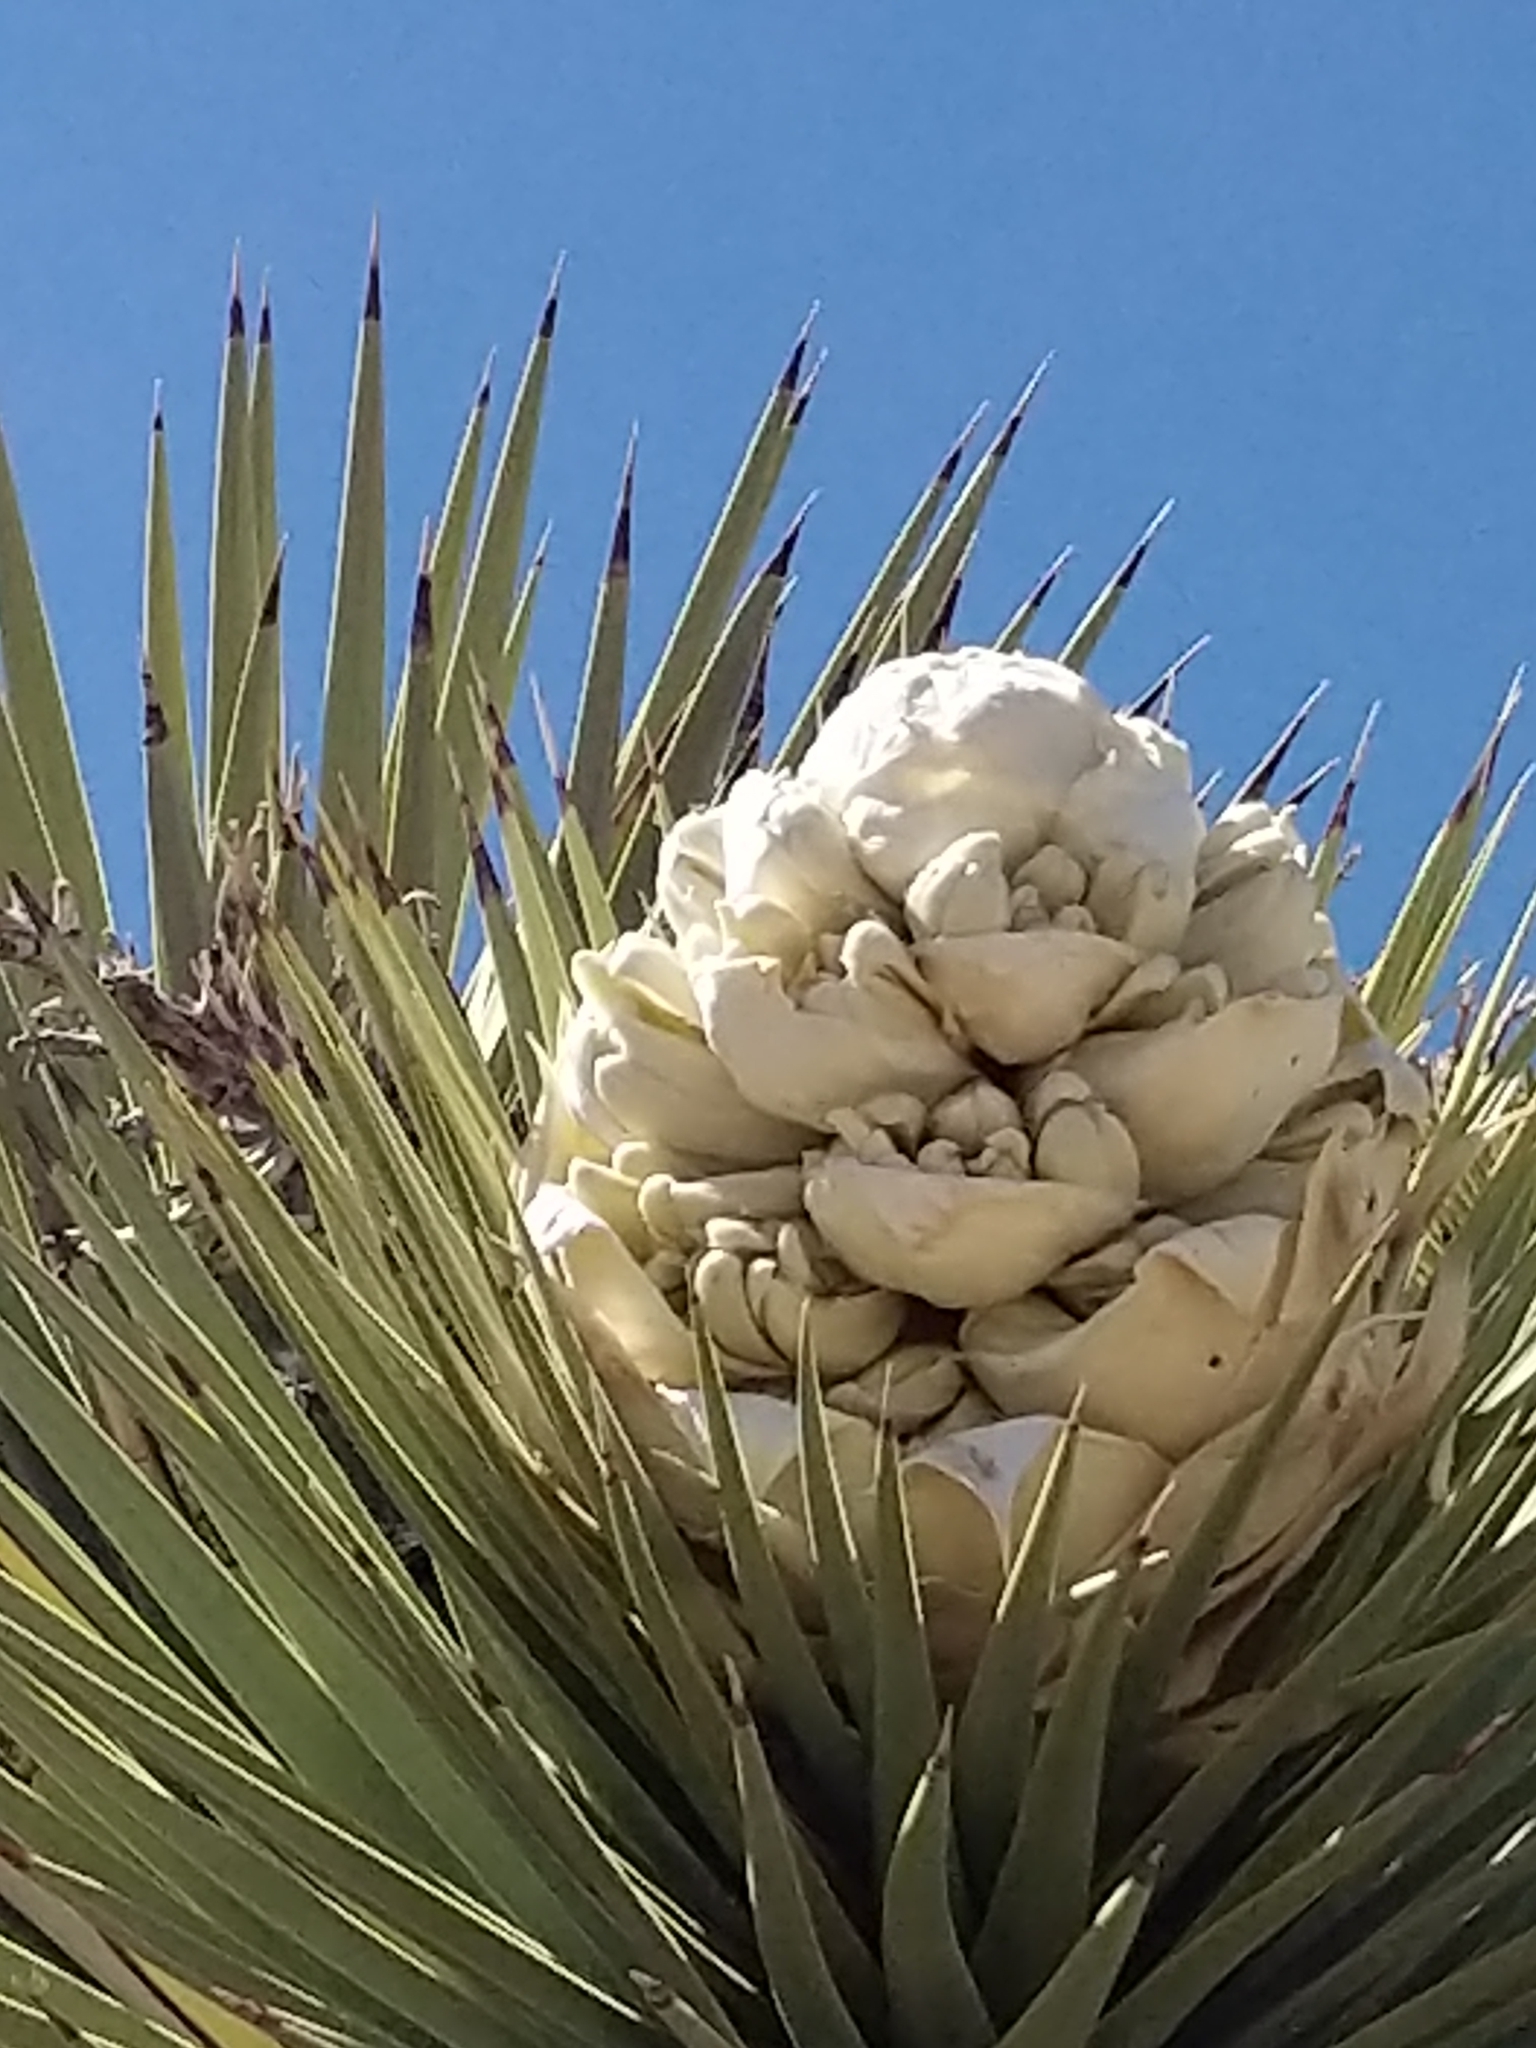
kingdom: Plantae
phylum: Tracheophyta
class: Liliopsida
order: Asparagales
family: Asparagaceae
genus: Yucca
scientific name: Yucca brevifolia
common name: Joshua tree
